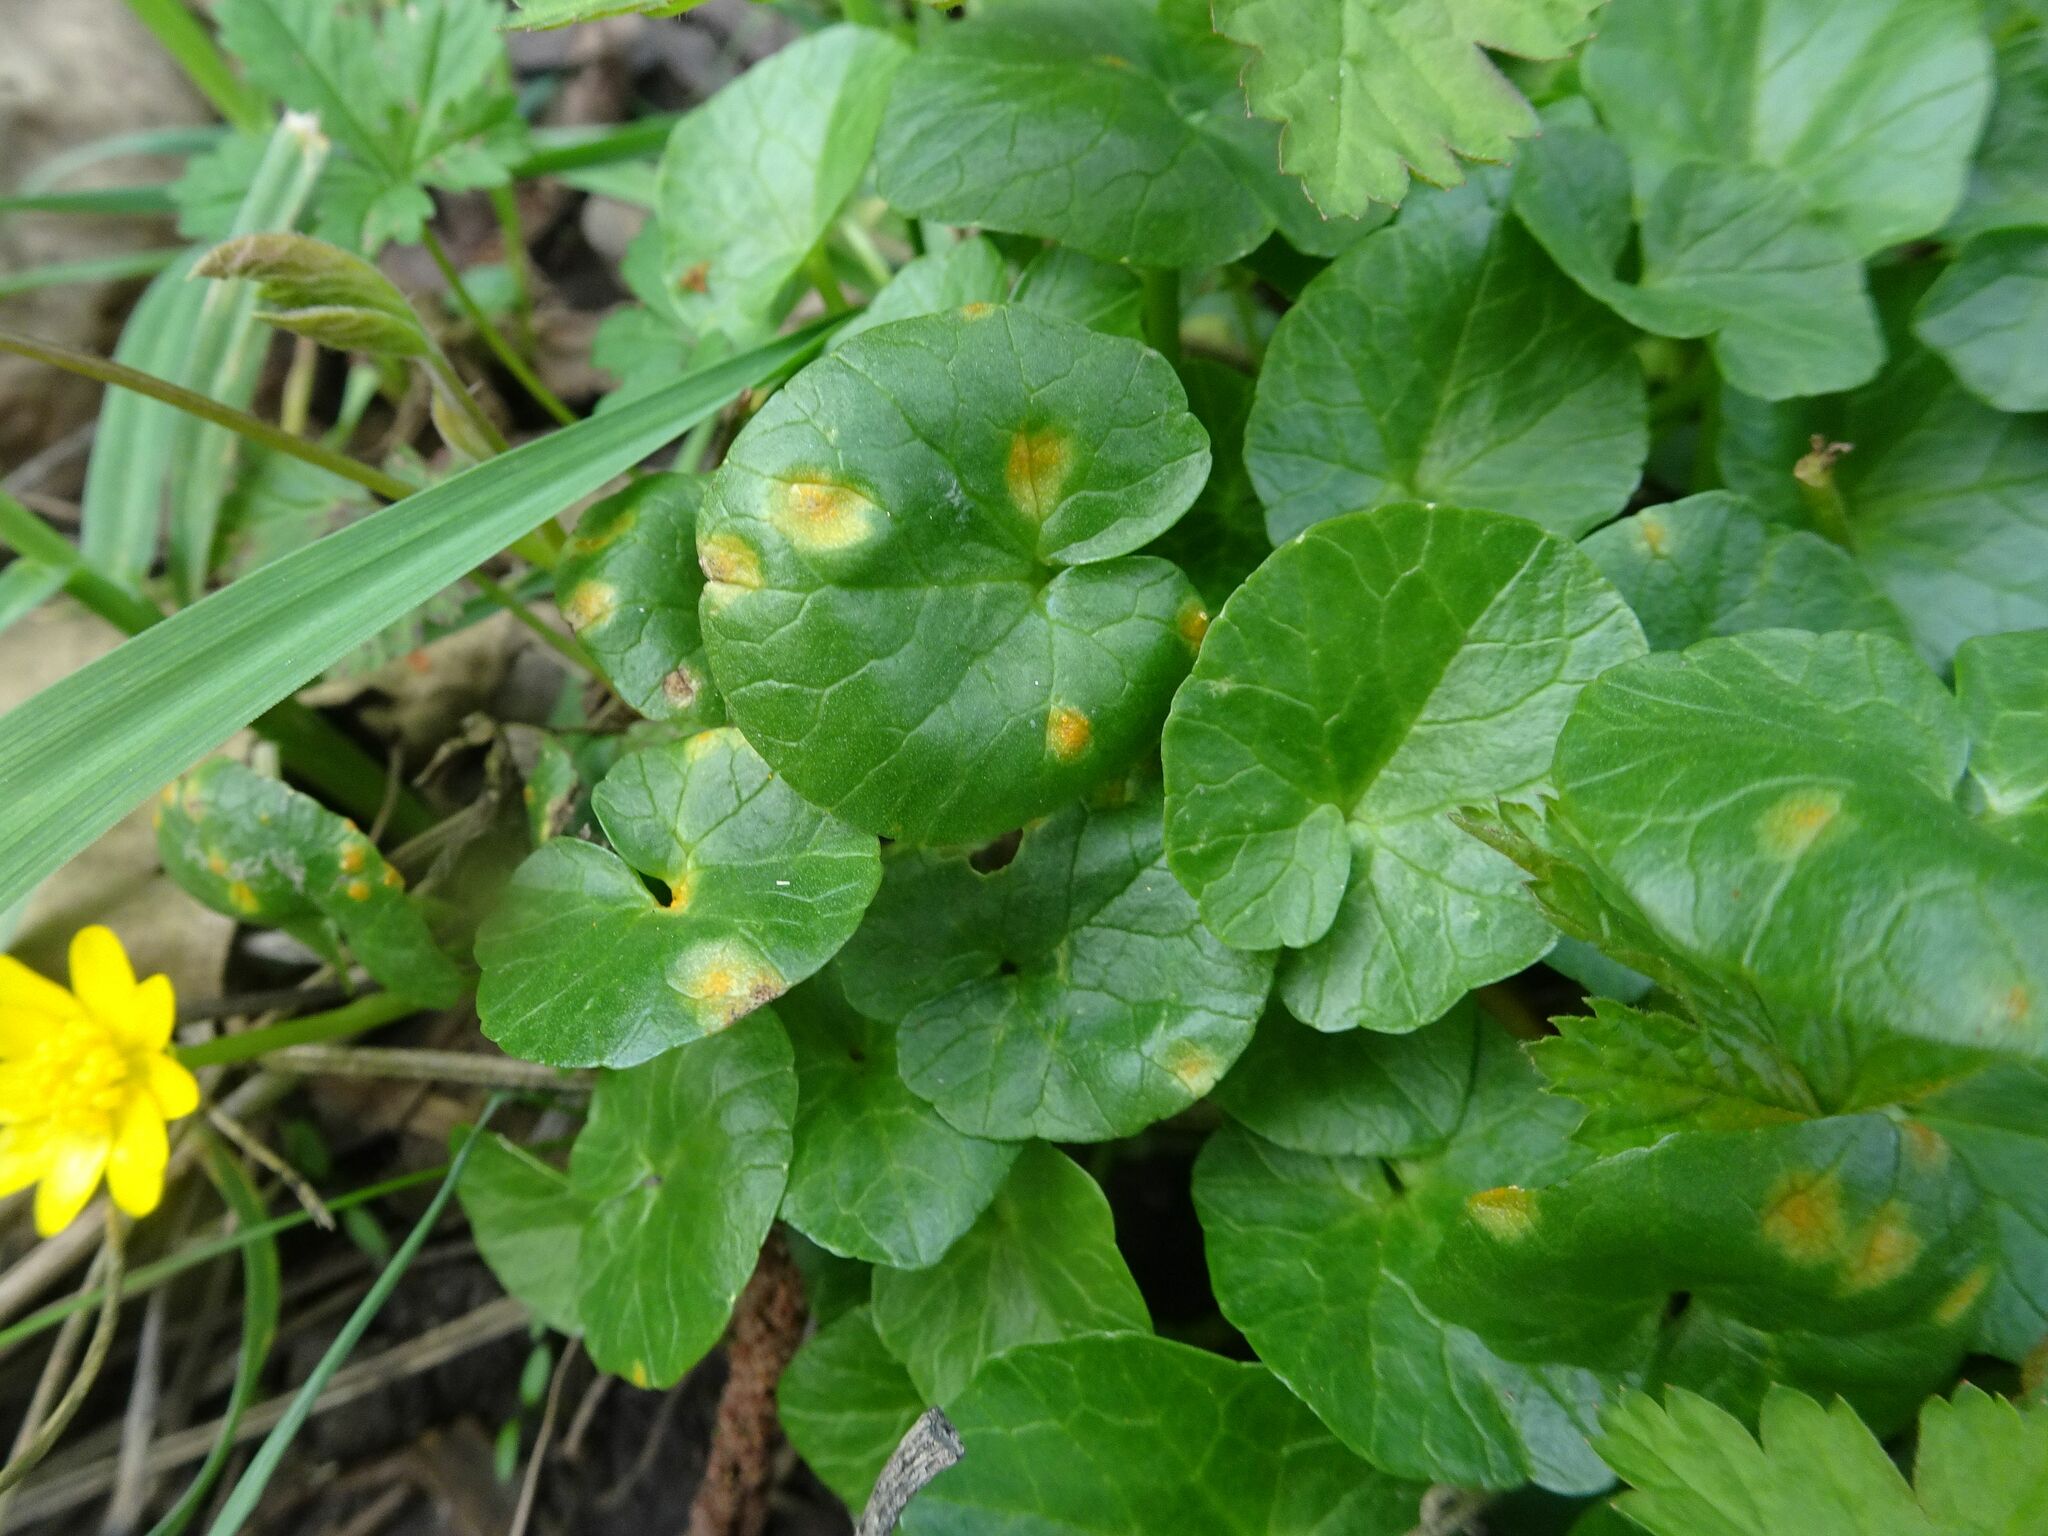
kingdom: Fungi
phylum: Basidiomycota
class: Pucciniomycetes
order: Pucciniales
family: Pucciniaceae
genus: Uromyces
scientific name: Uromyces
